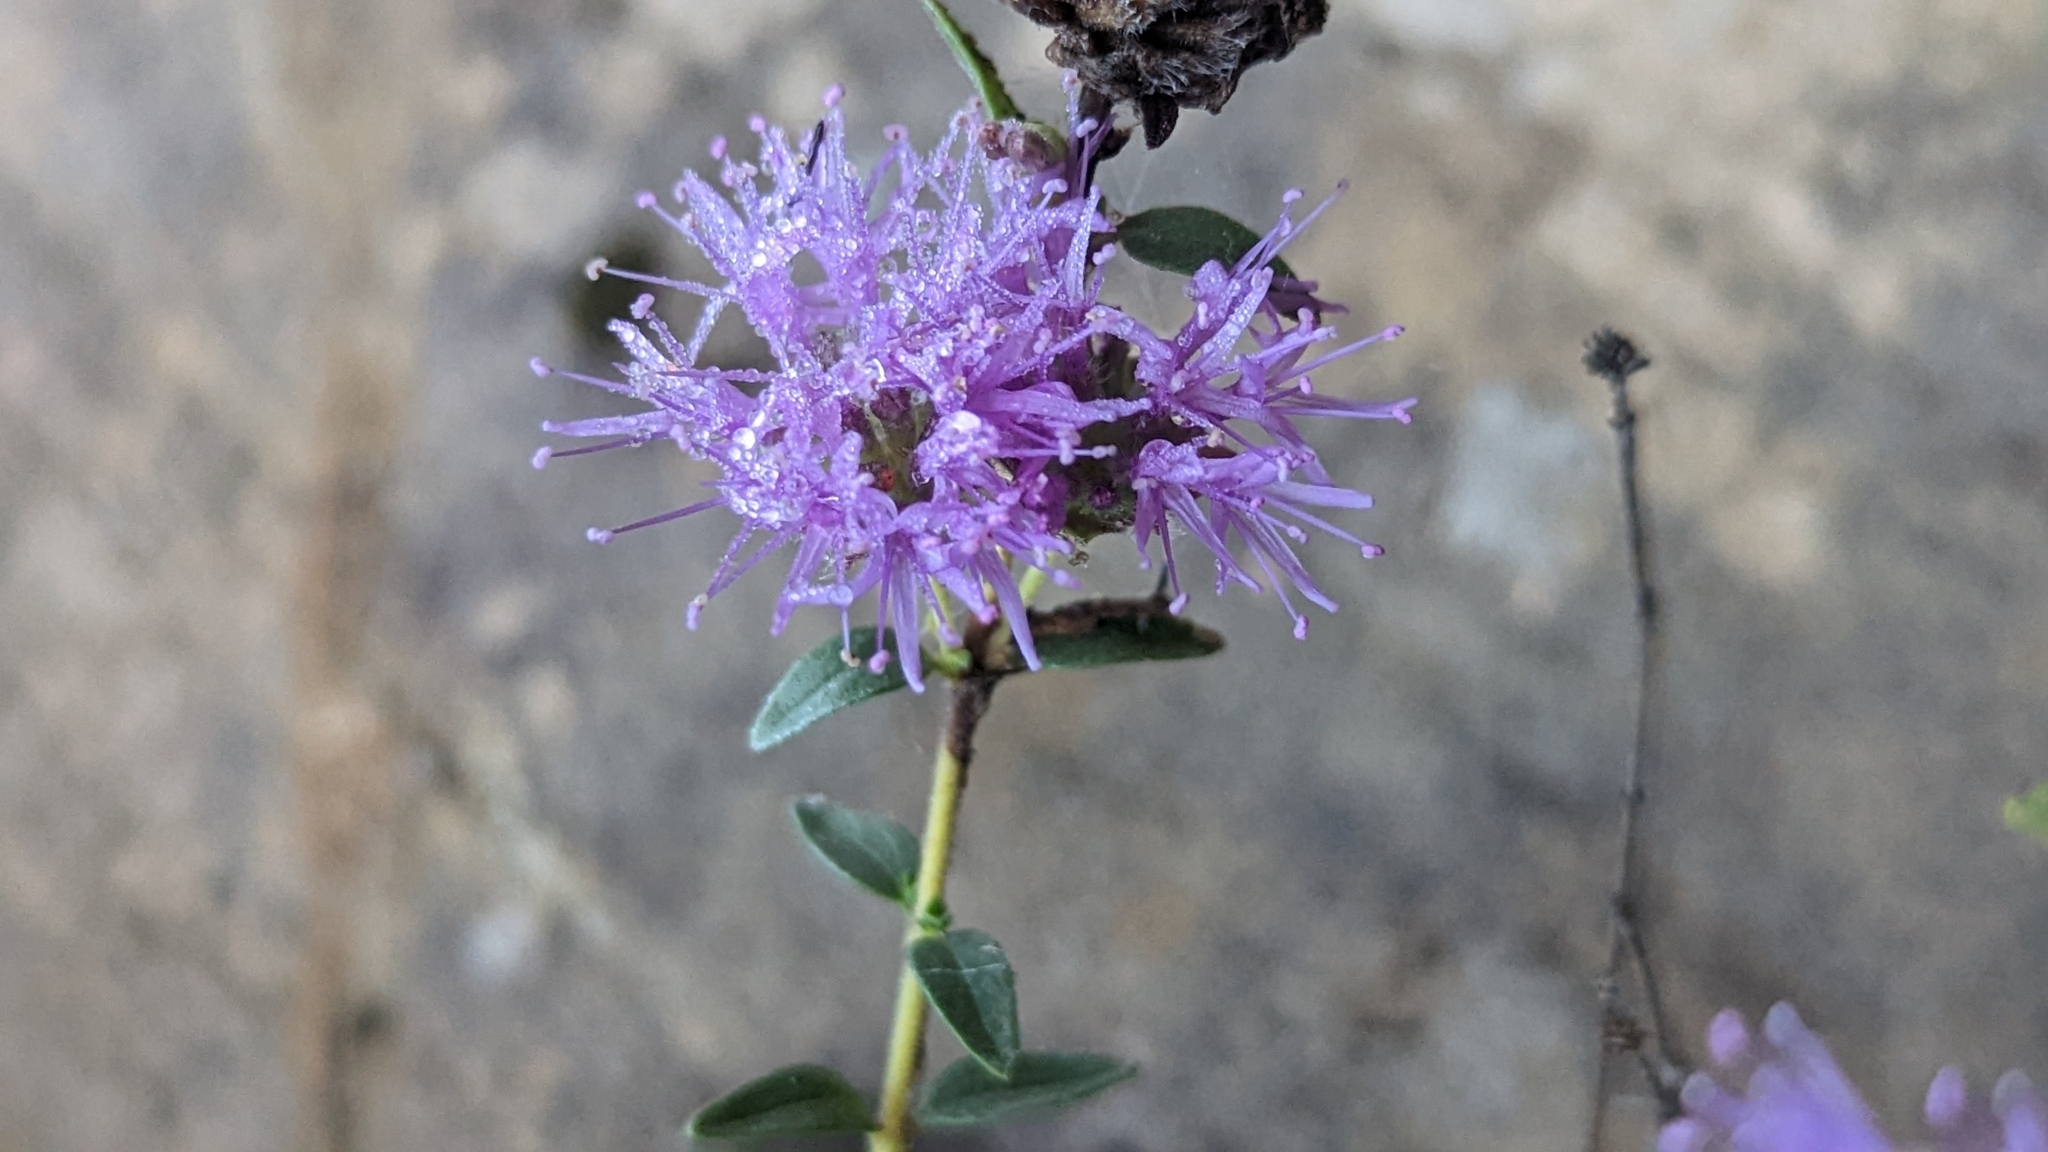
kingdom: Plantae
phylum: Tracheophyta
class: Magnoliopsida
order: Lamiales
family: Lamiaceae
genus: Monardella
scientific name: Monardella odoratissima
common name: Pacific monardella
